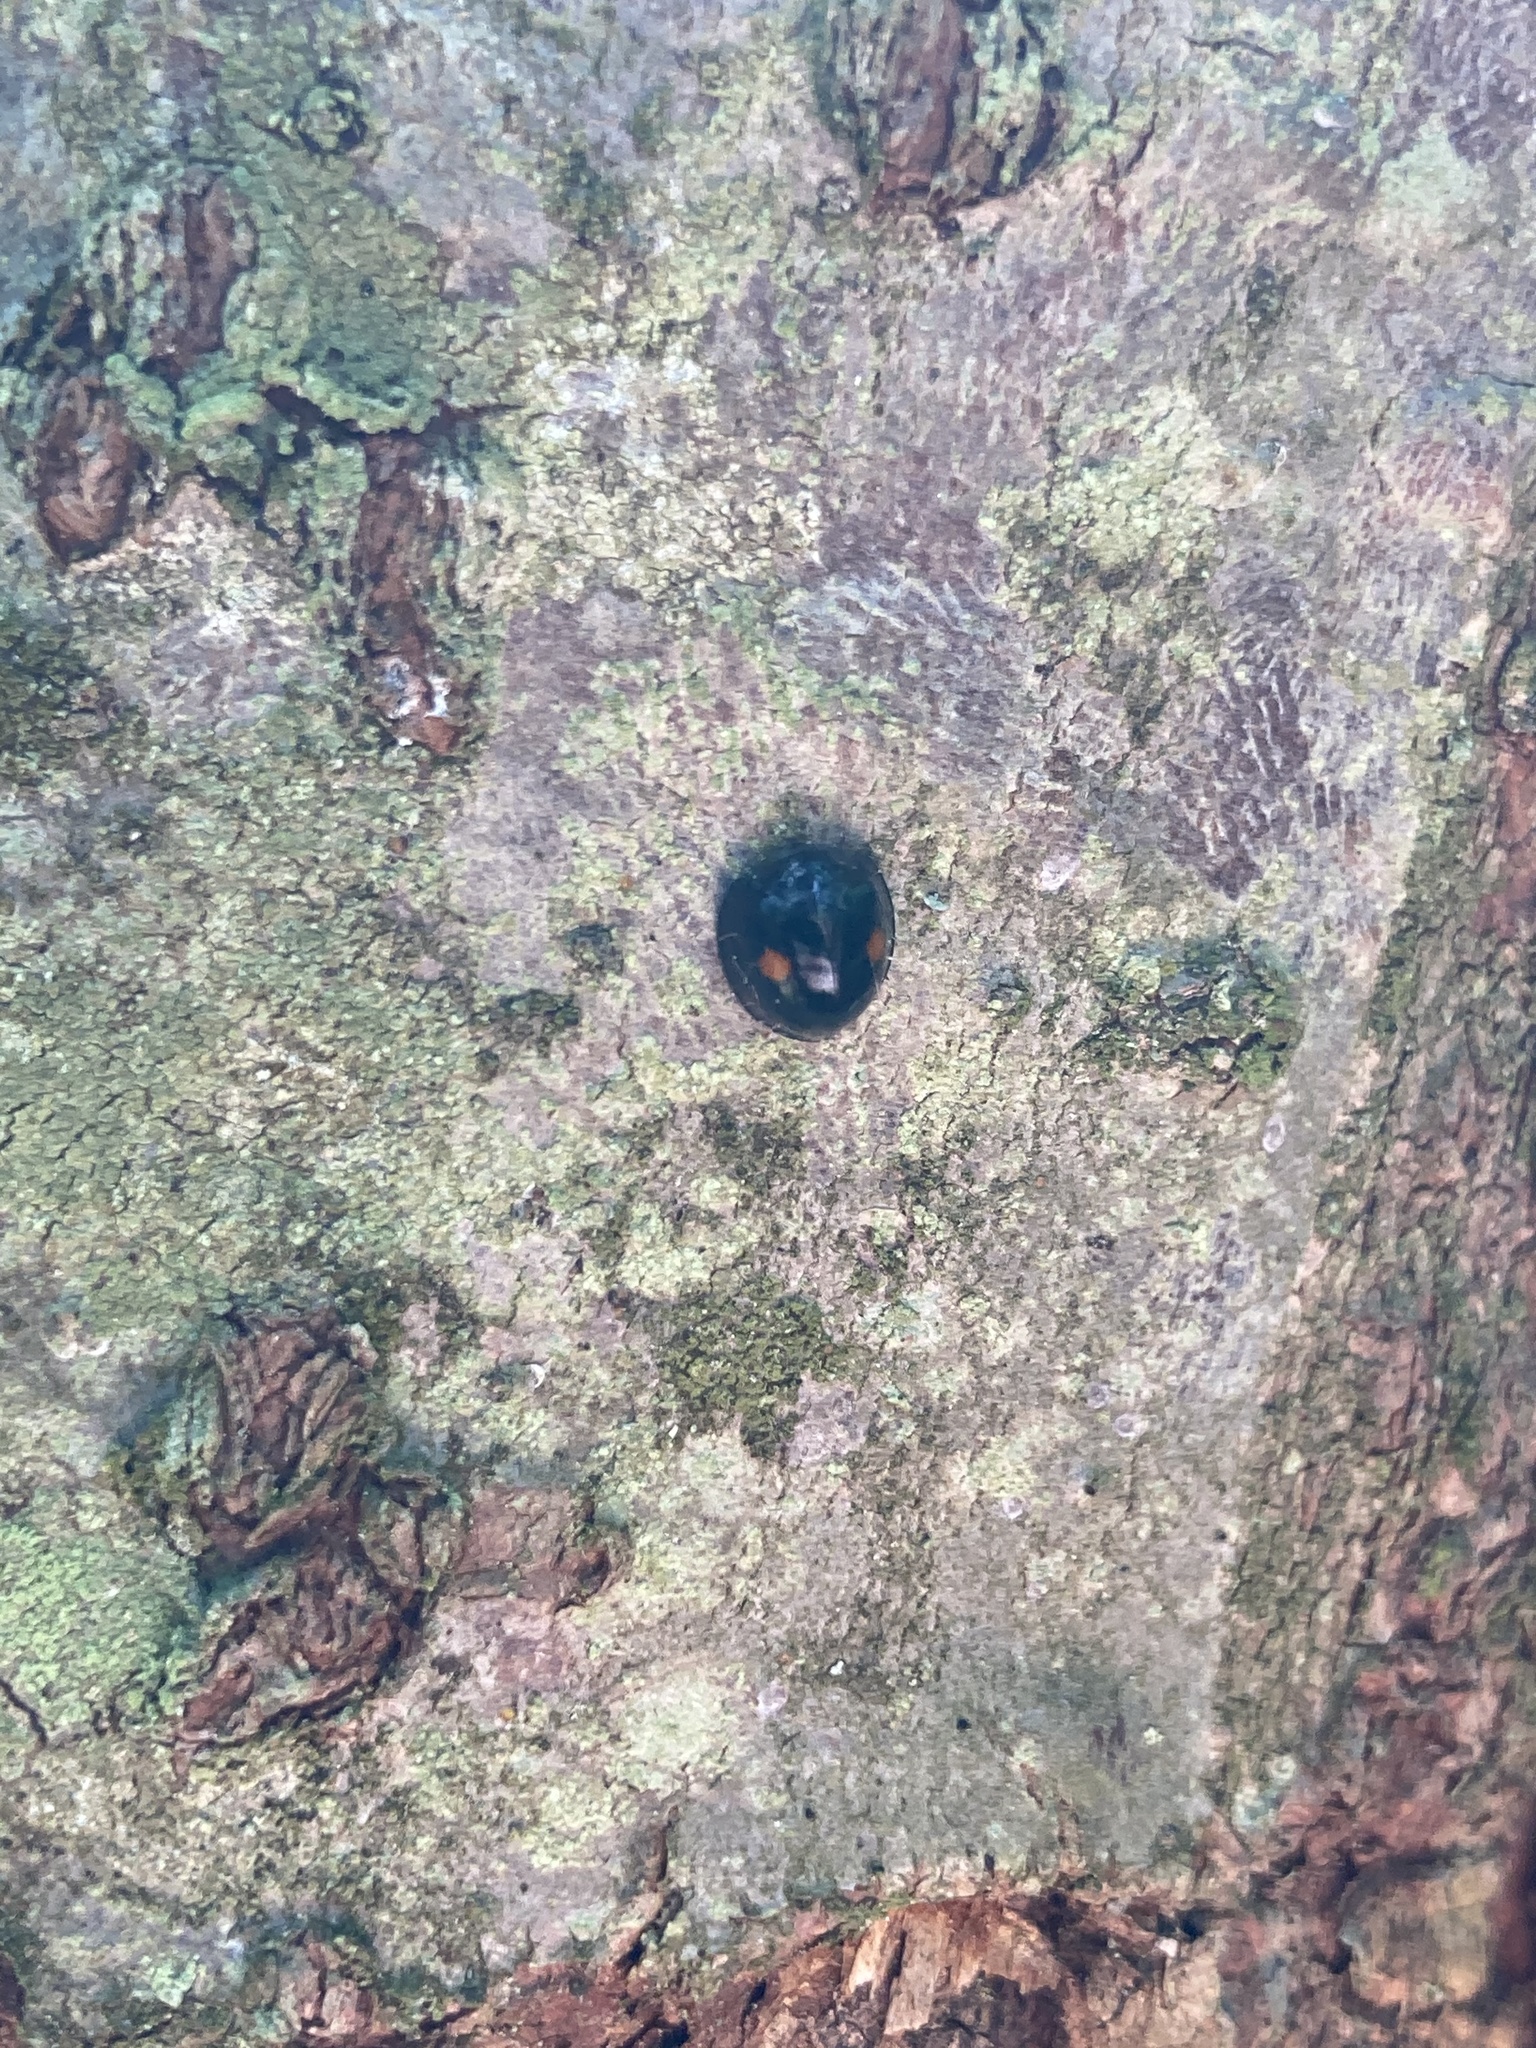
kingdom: Animalia
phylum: Arthropoda
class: Insecta
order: Coleoptera
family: Coccinellidae
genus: Chilocorus
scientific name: Chilocorus stigma
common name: Twicestabbed lady beetle
